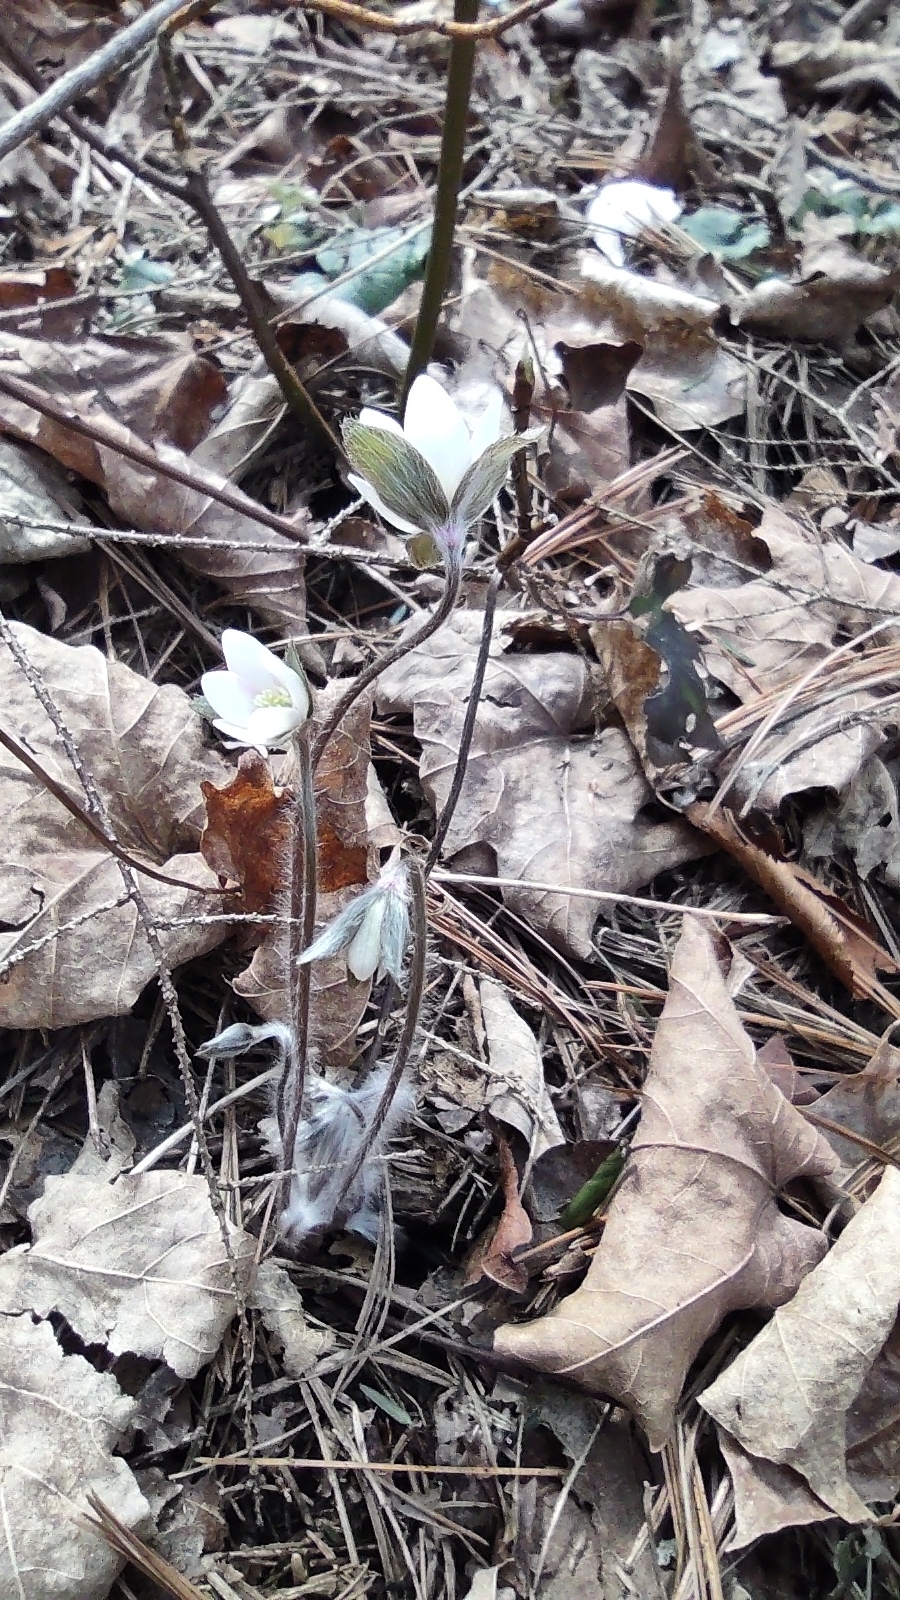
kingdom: Plantae
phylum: Tracheophyta
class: Magnoliopsida
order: Ranunculales
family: Ranunculaceae
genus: Hepatica
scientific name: Hepatica acutiloba
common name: Sharp-lobed hepatica
